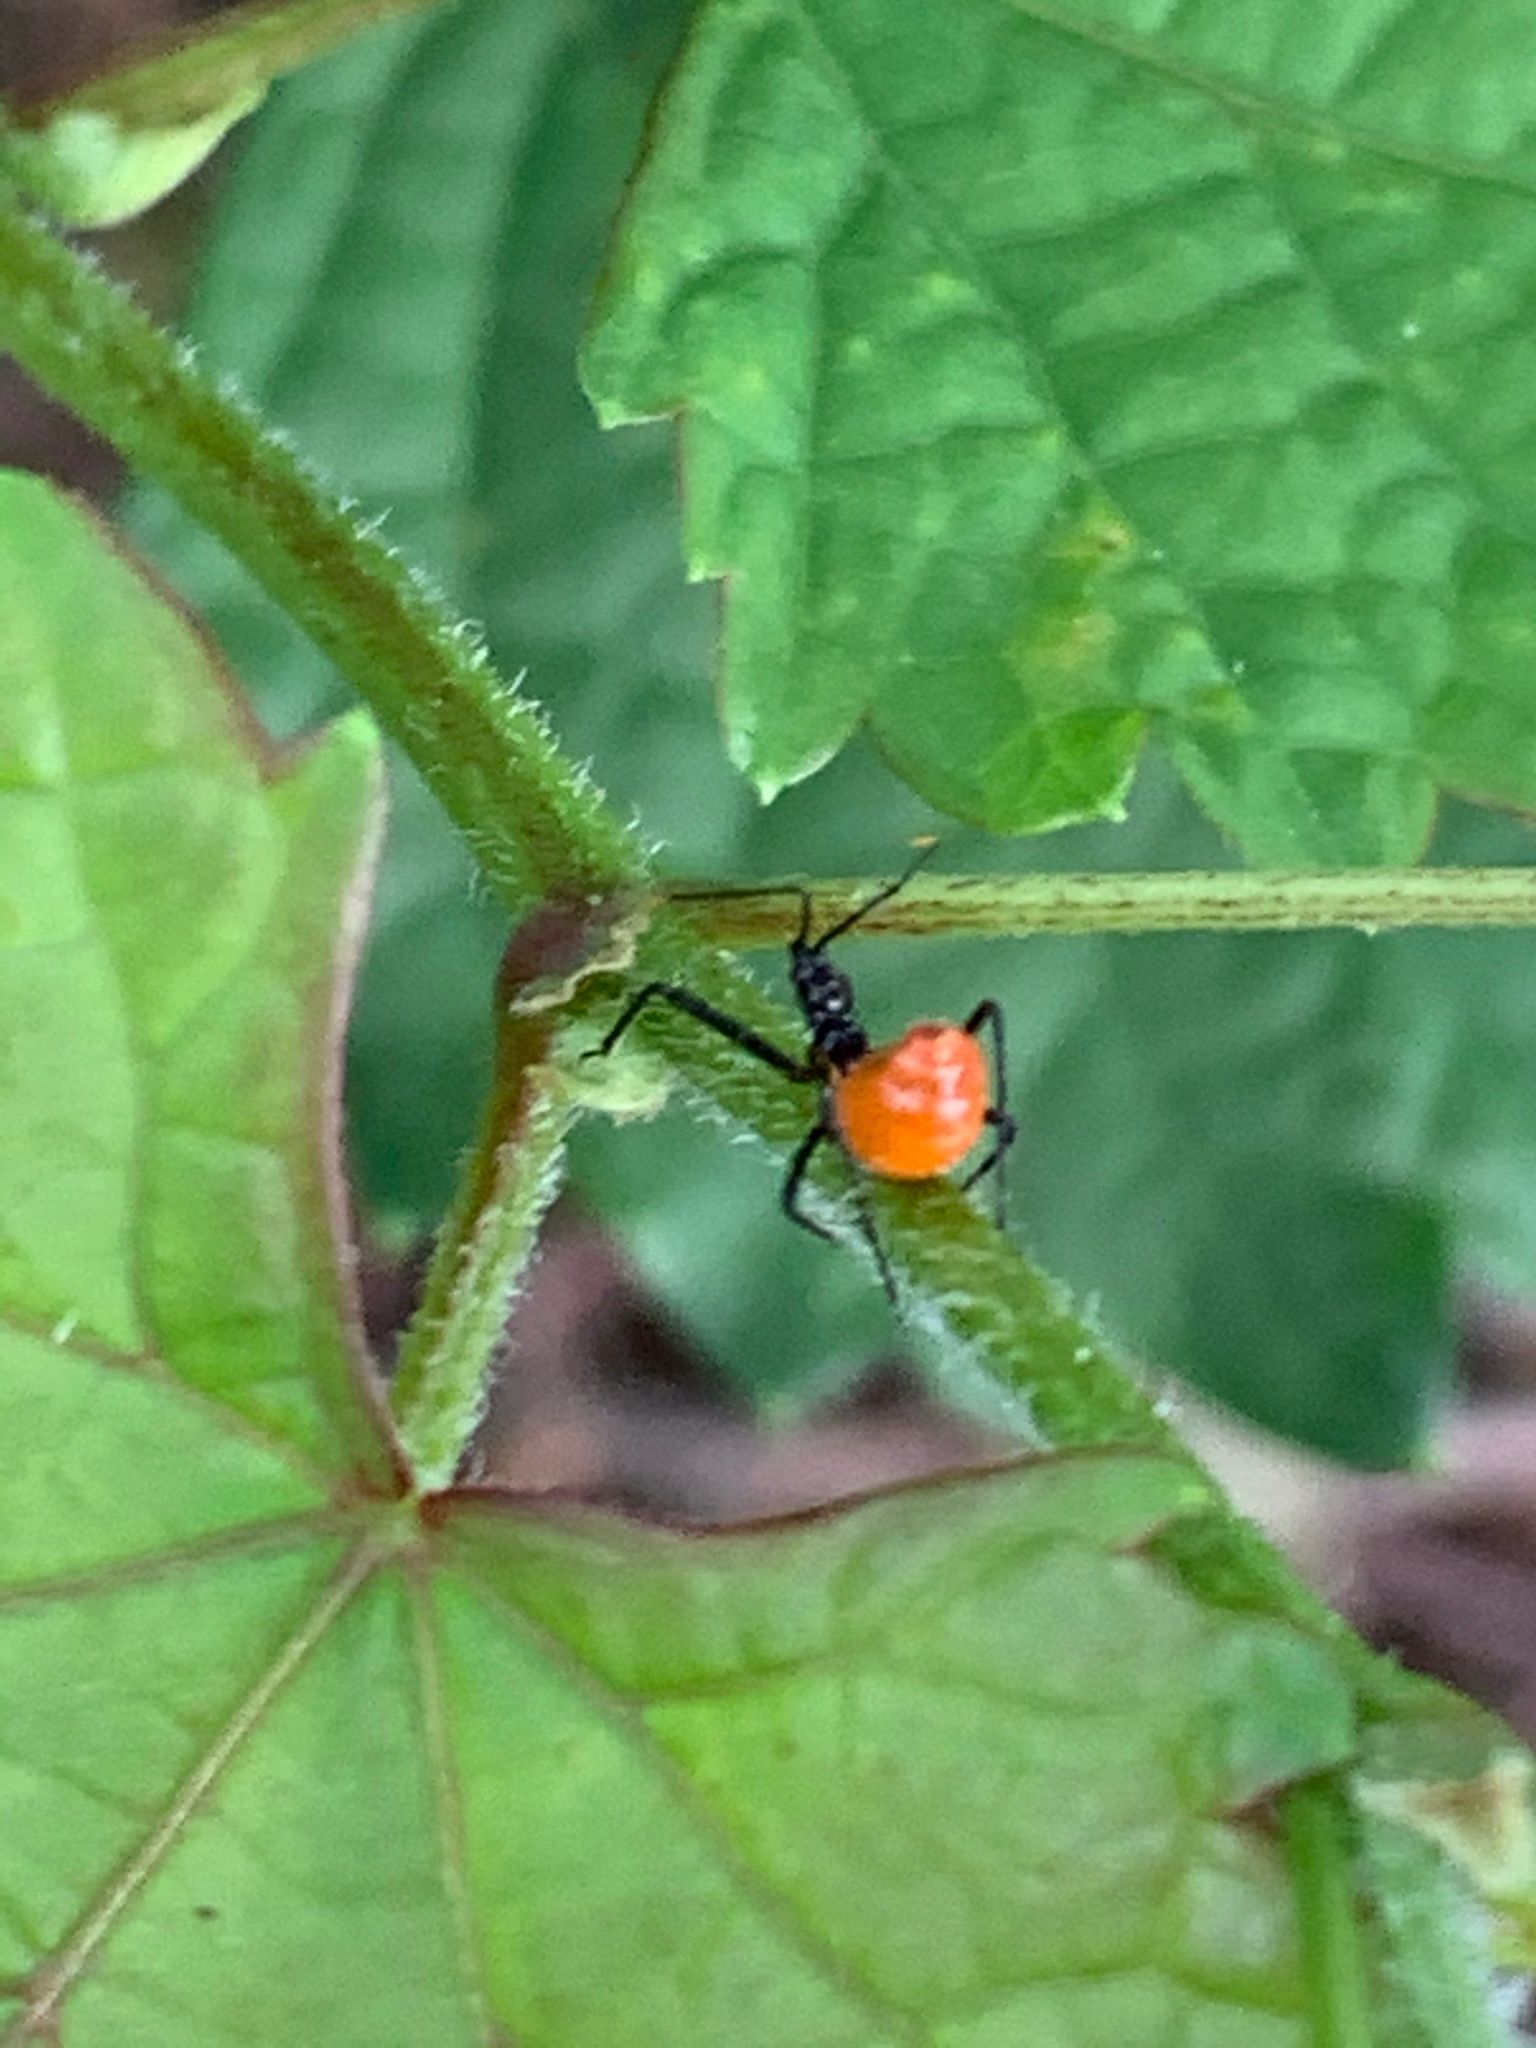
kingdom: Animalia
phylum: Arthropoda
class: Insecta
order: Hemiptera
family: Reduviidae
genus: Arilus
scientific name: Arilus cristatus
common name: North american wheel bug
